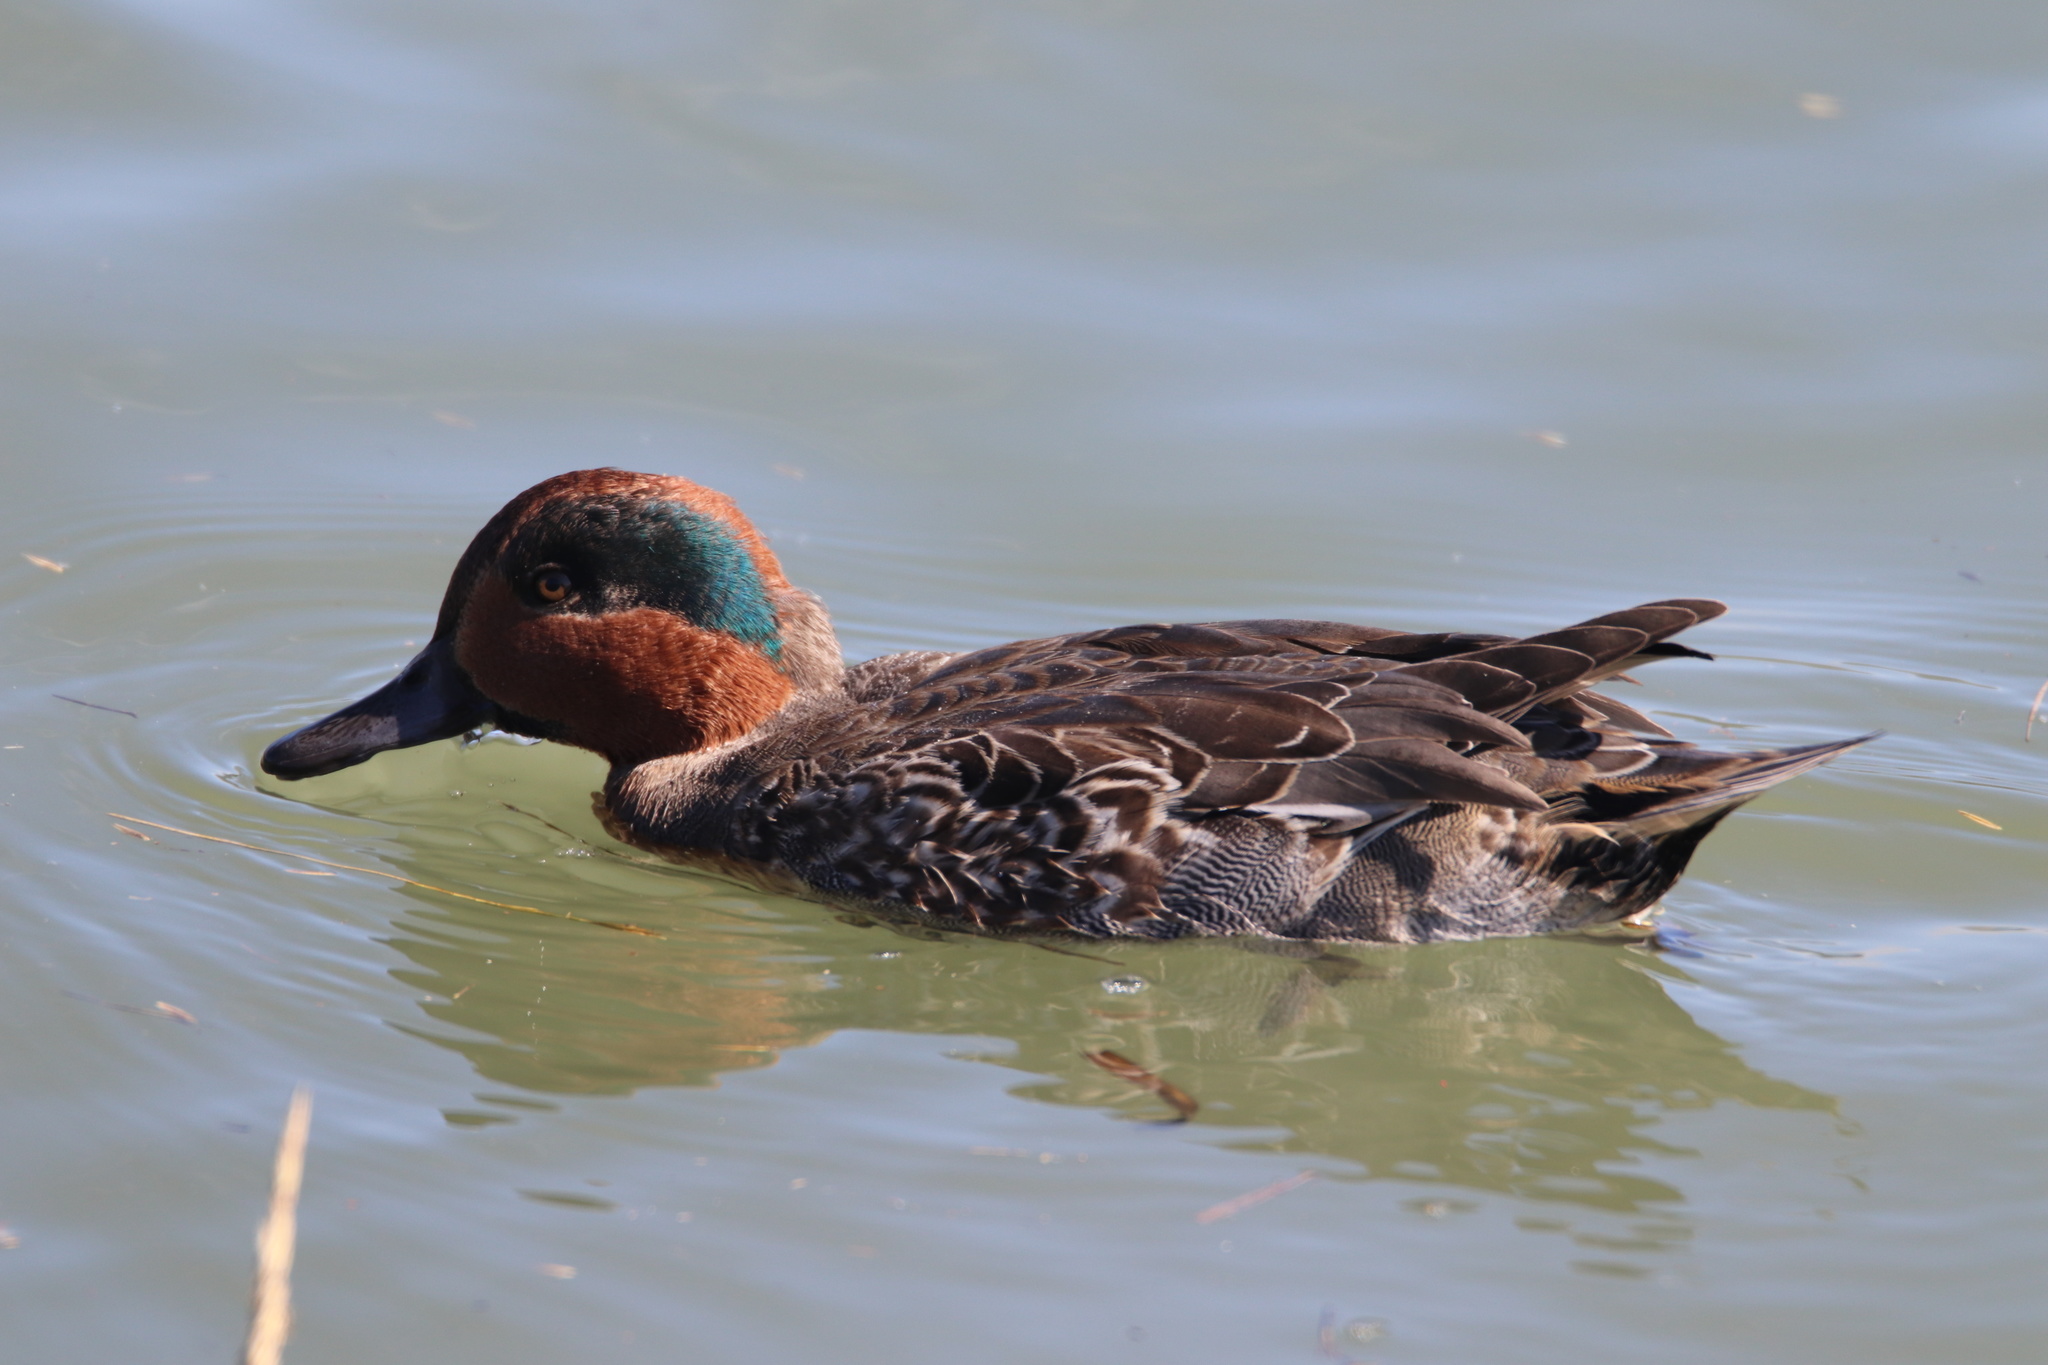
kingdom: Animalia
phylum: Chordata
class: Aves
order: Anseriformes
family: Anatidae
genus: Anas
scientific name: Anas crecca
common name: Eurasian teal
